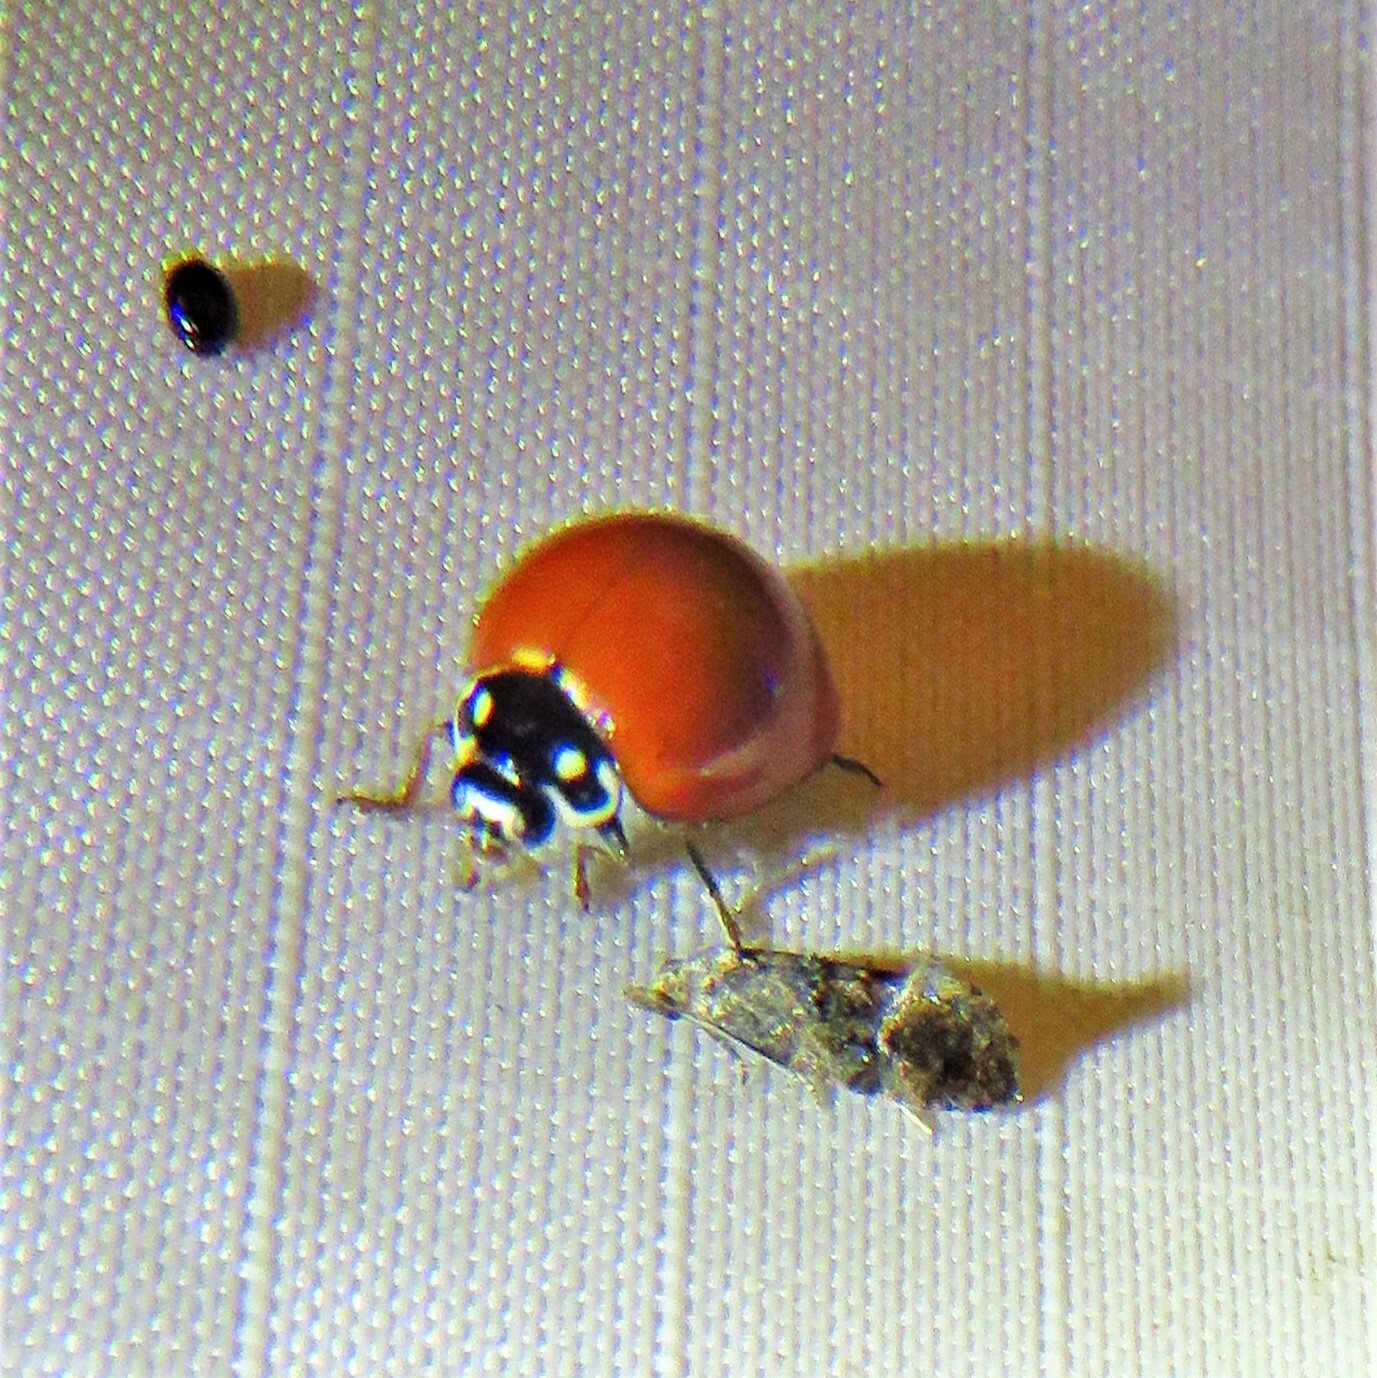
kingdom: Animalia
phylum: Arthropoda
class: Insecta
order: Coleoptera
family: Coccinellidae
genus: Cycloneda
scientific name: Cycloneda sanguinea
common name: Ladybird beetle
